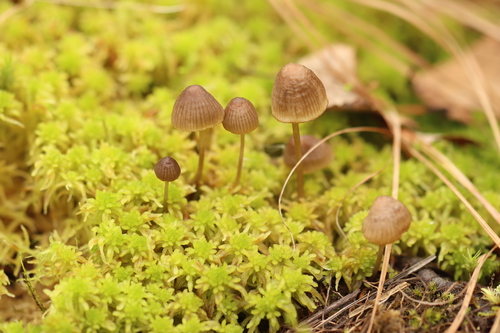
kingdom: Fungi
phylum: Basidiomycota
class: Agaricomycetes
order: Agaricales
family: Mycenaceae
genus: Mycena
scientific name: Mycena silvae-nigrae
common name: Pine bonnet
